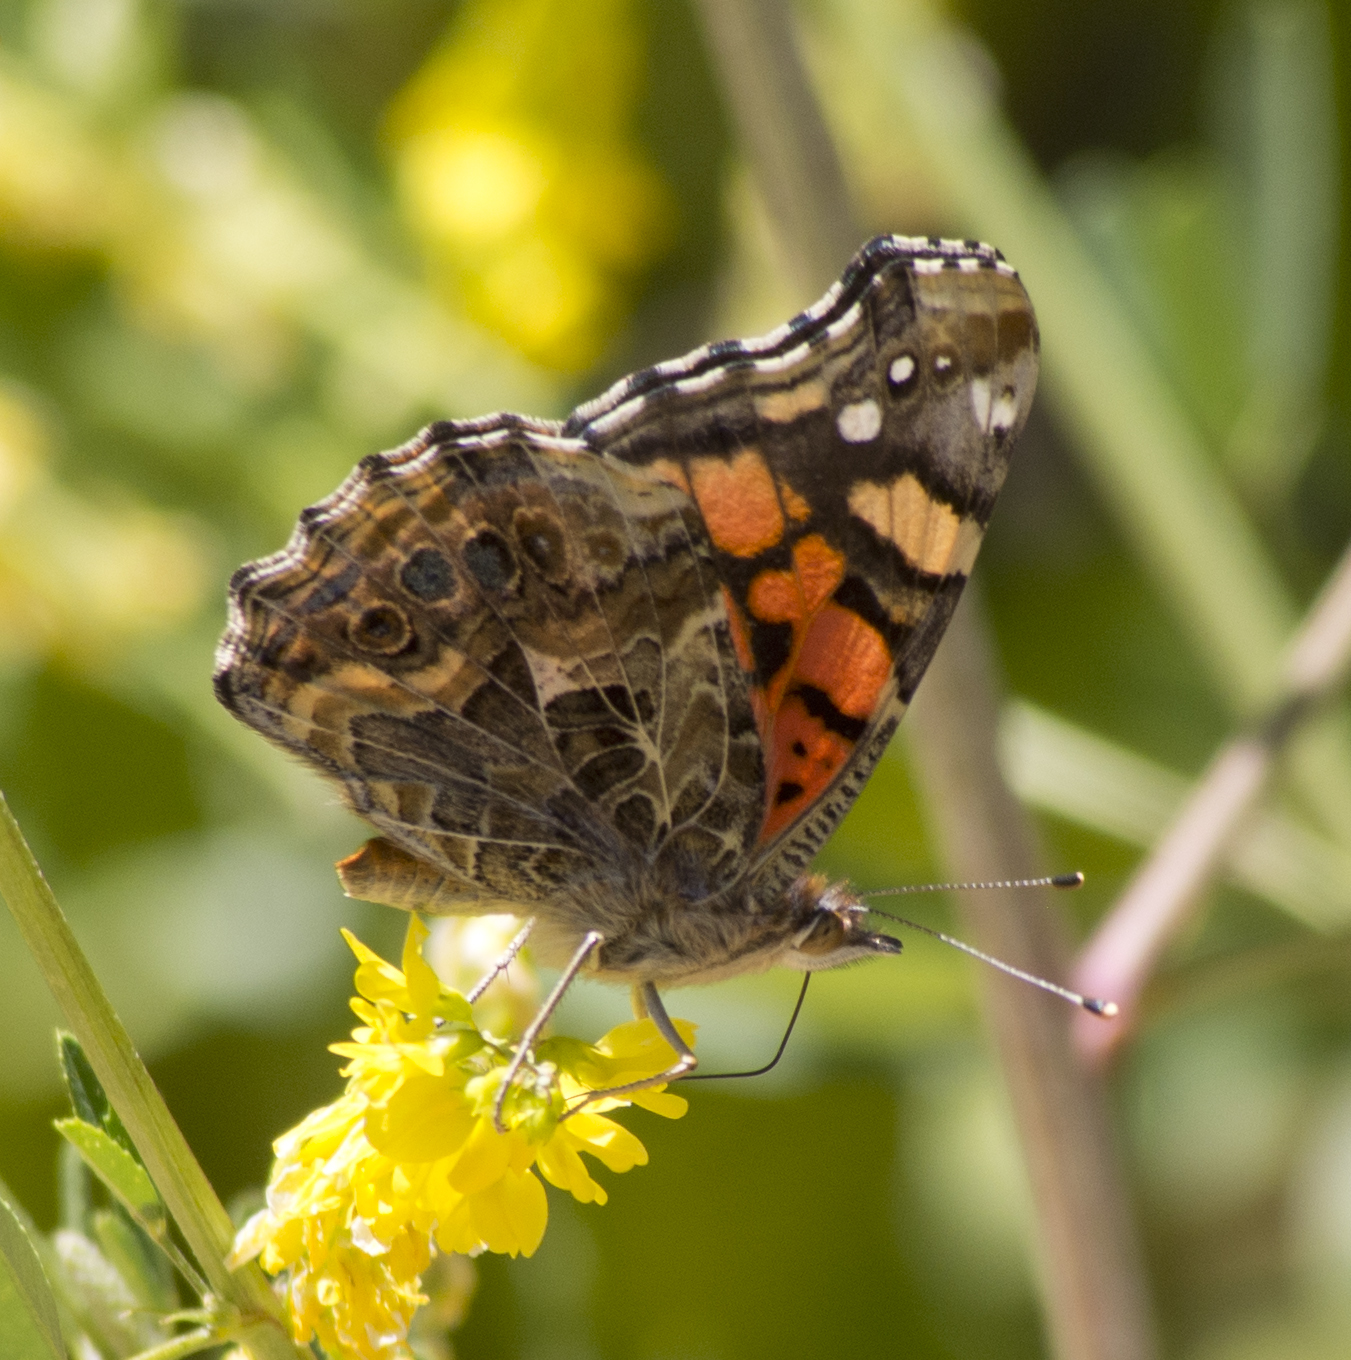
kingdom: Animalia
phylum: Arthropoda
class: Insecta
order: Lepidoptera
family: Nymphalidae
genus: Vanessa
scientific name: Vanessa annabella
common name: West coast lady
